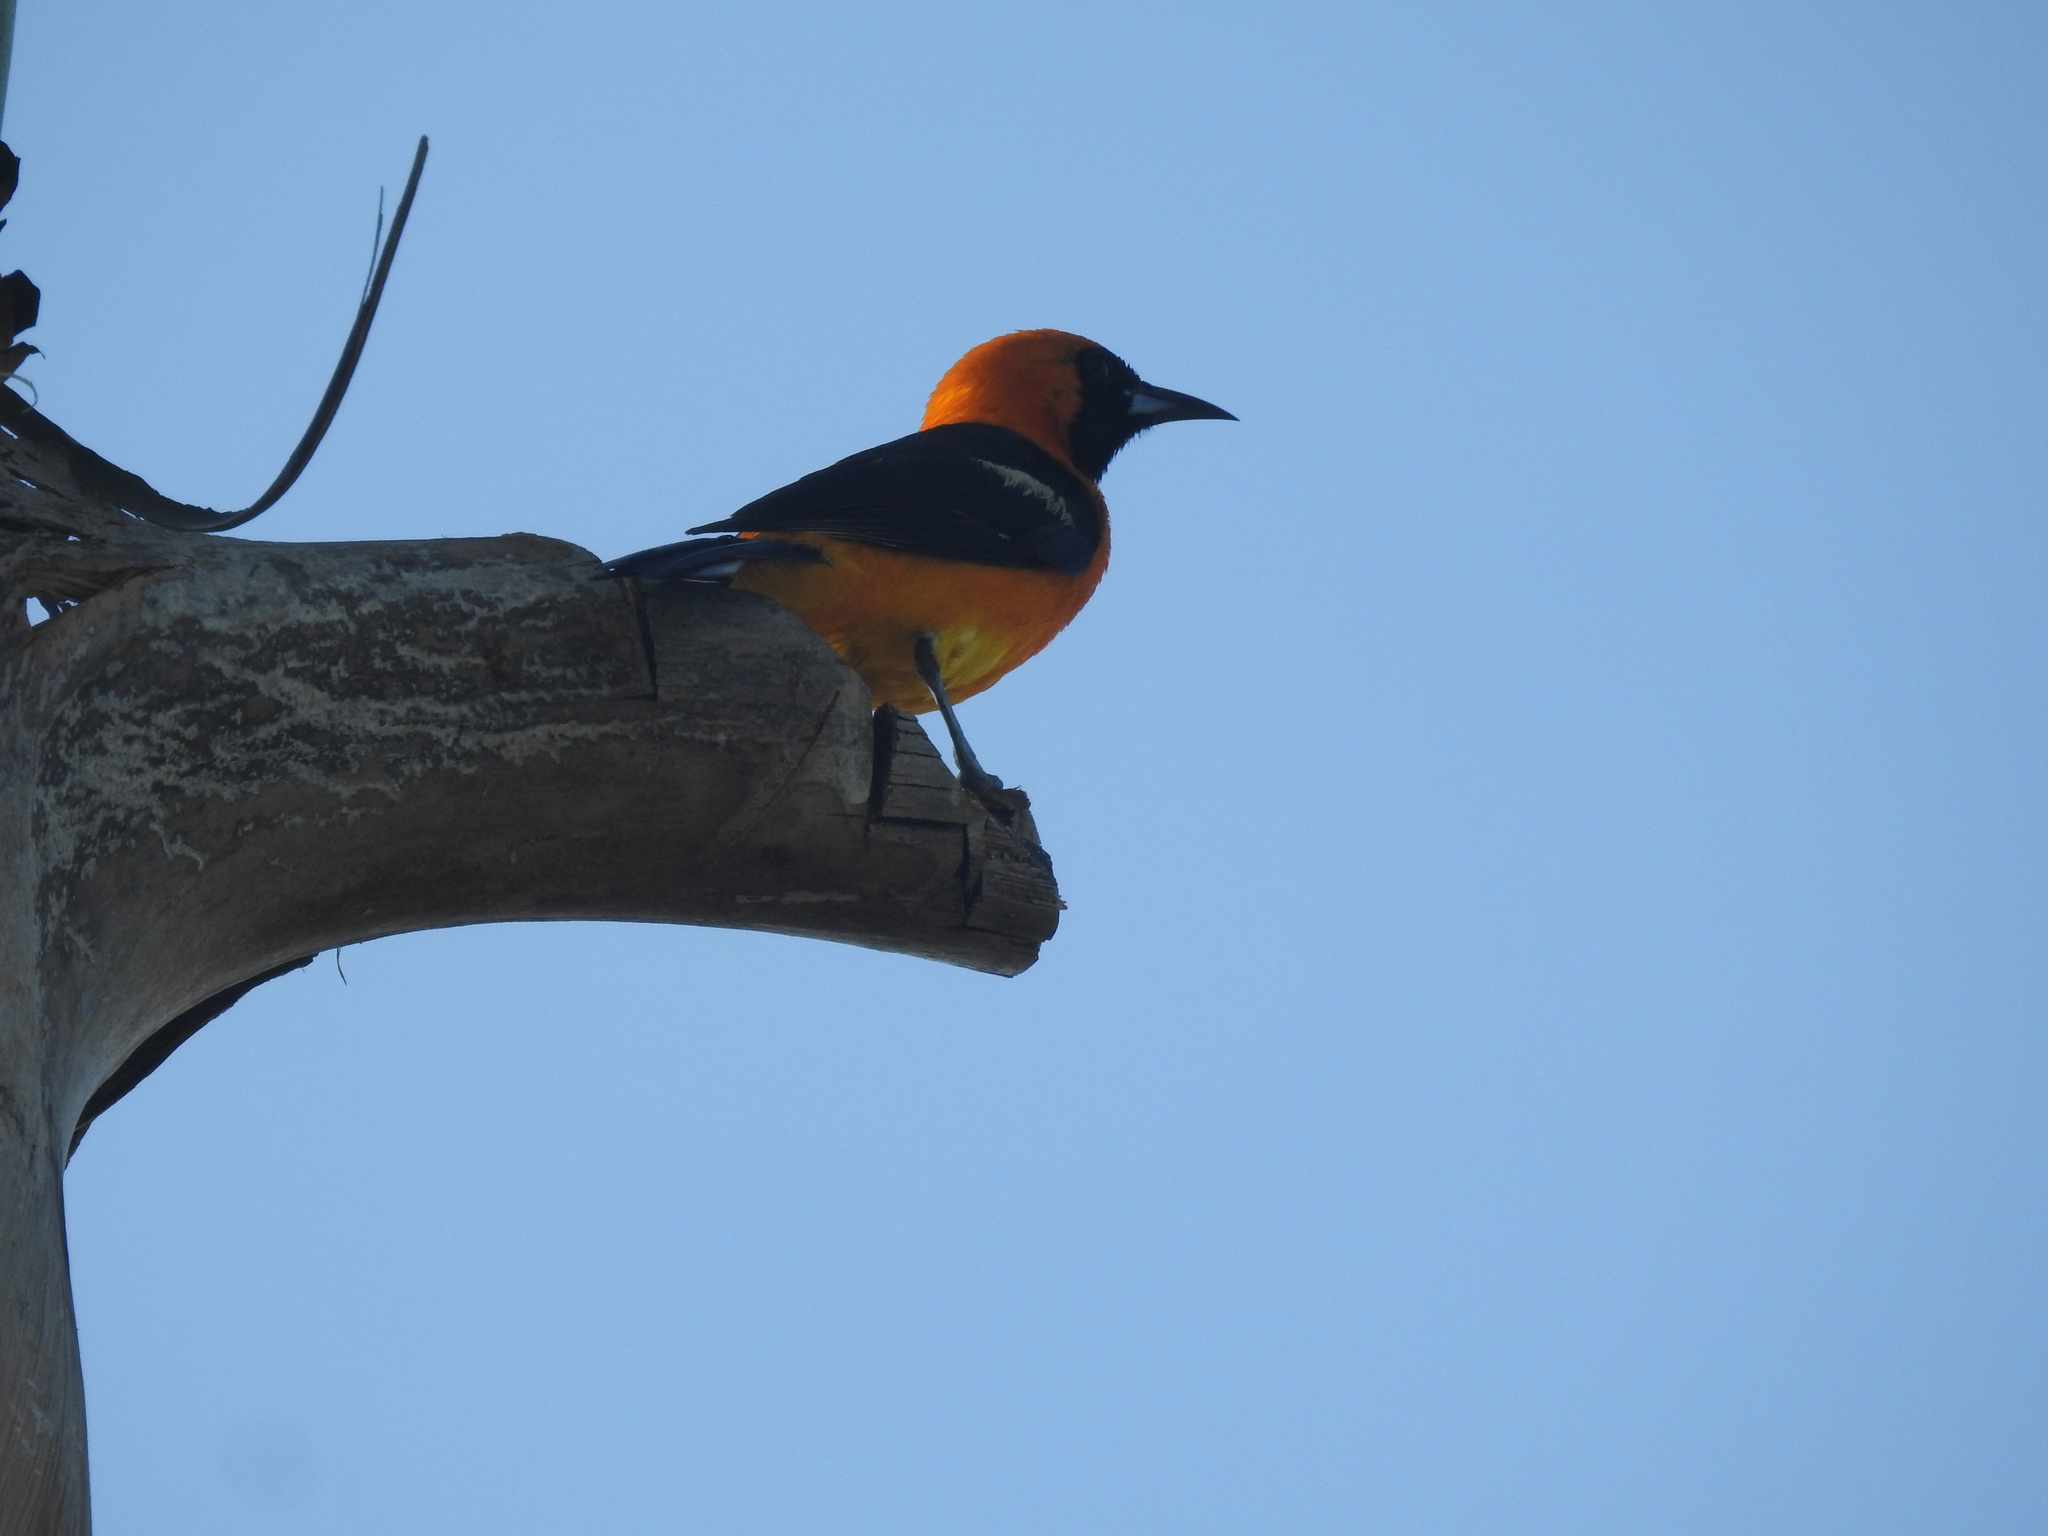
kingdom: Animalia
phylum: Chordata
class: Aves
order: Passeriformes
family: Icteridae
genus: Icterus
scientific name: Icterus cucullatus
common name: Hooded oriole
